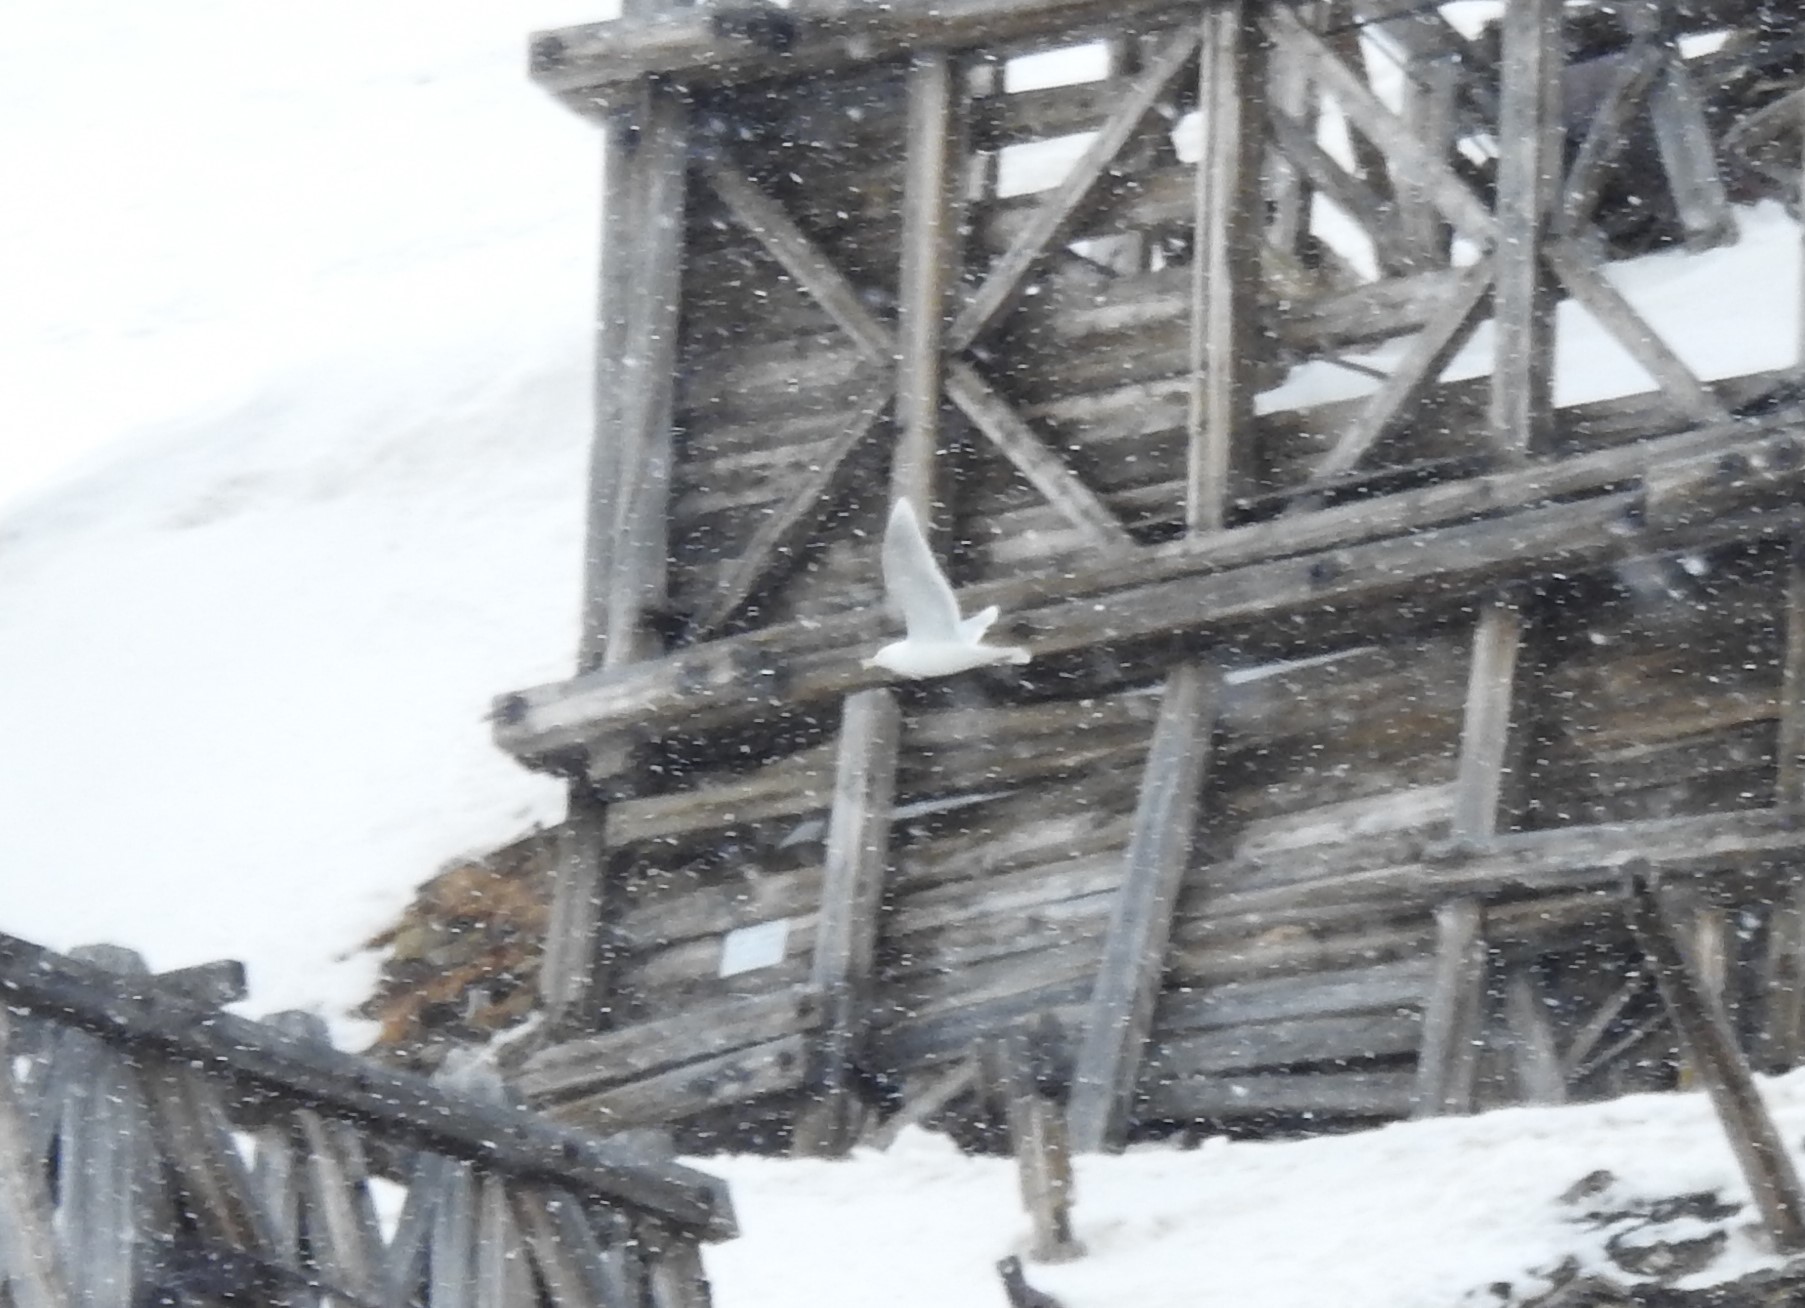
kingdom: Animalia
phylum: Chordata
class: Aves
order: Charadriiformes
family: Laridae
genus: Larus
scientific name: Larus hyperboreus
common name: Glaucous gull
